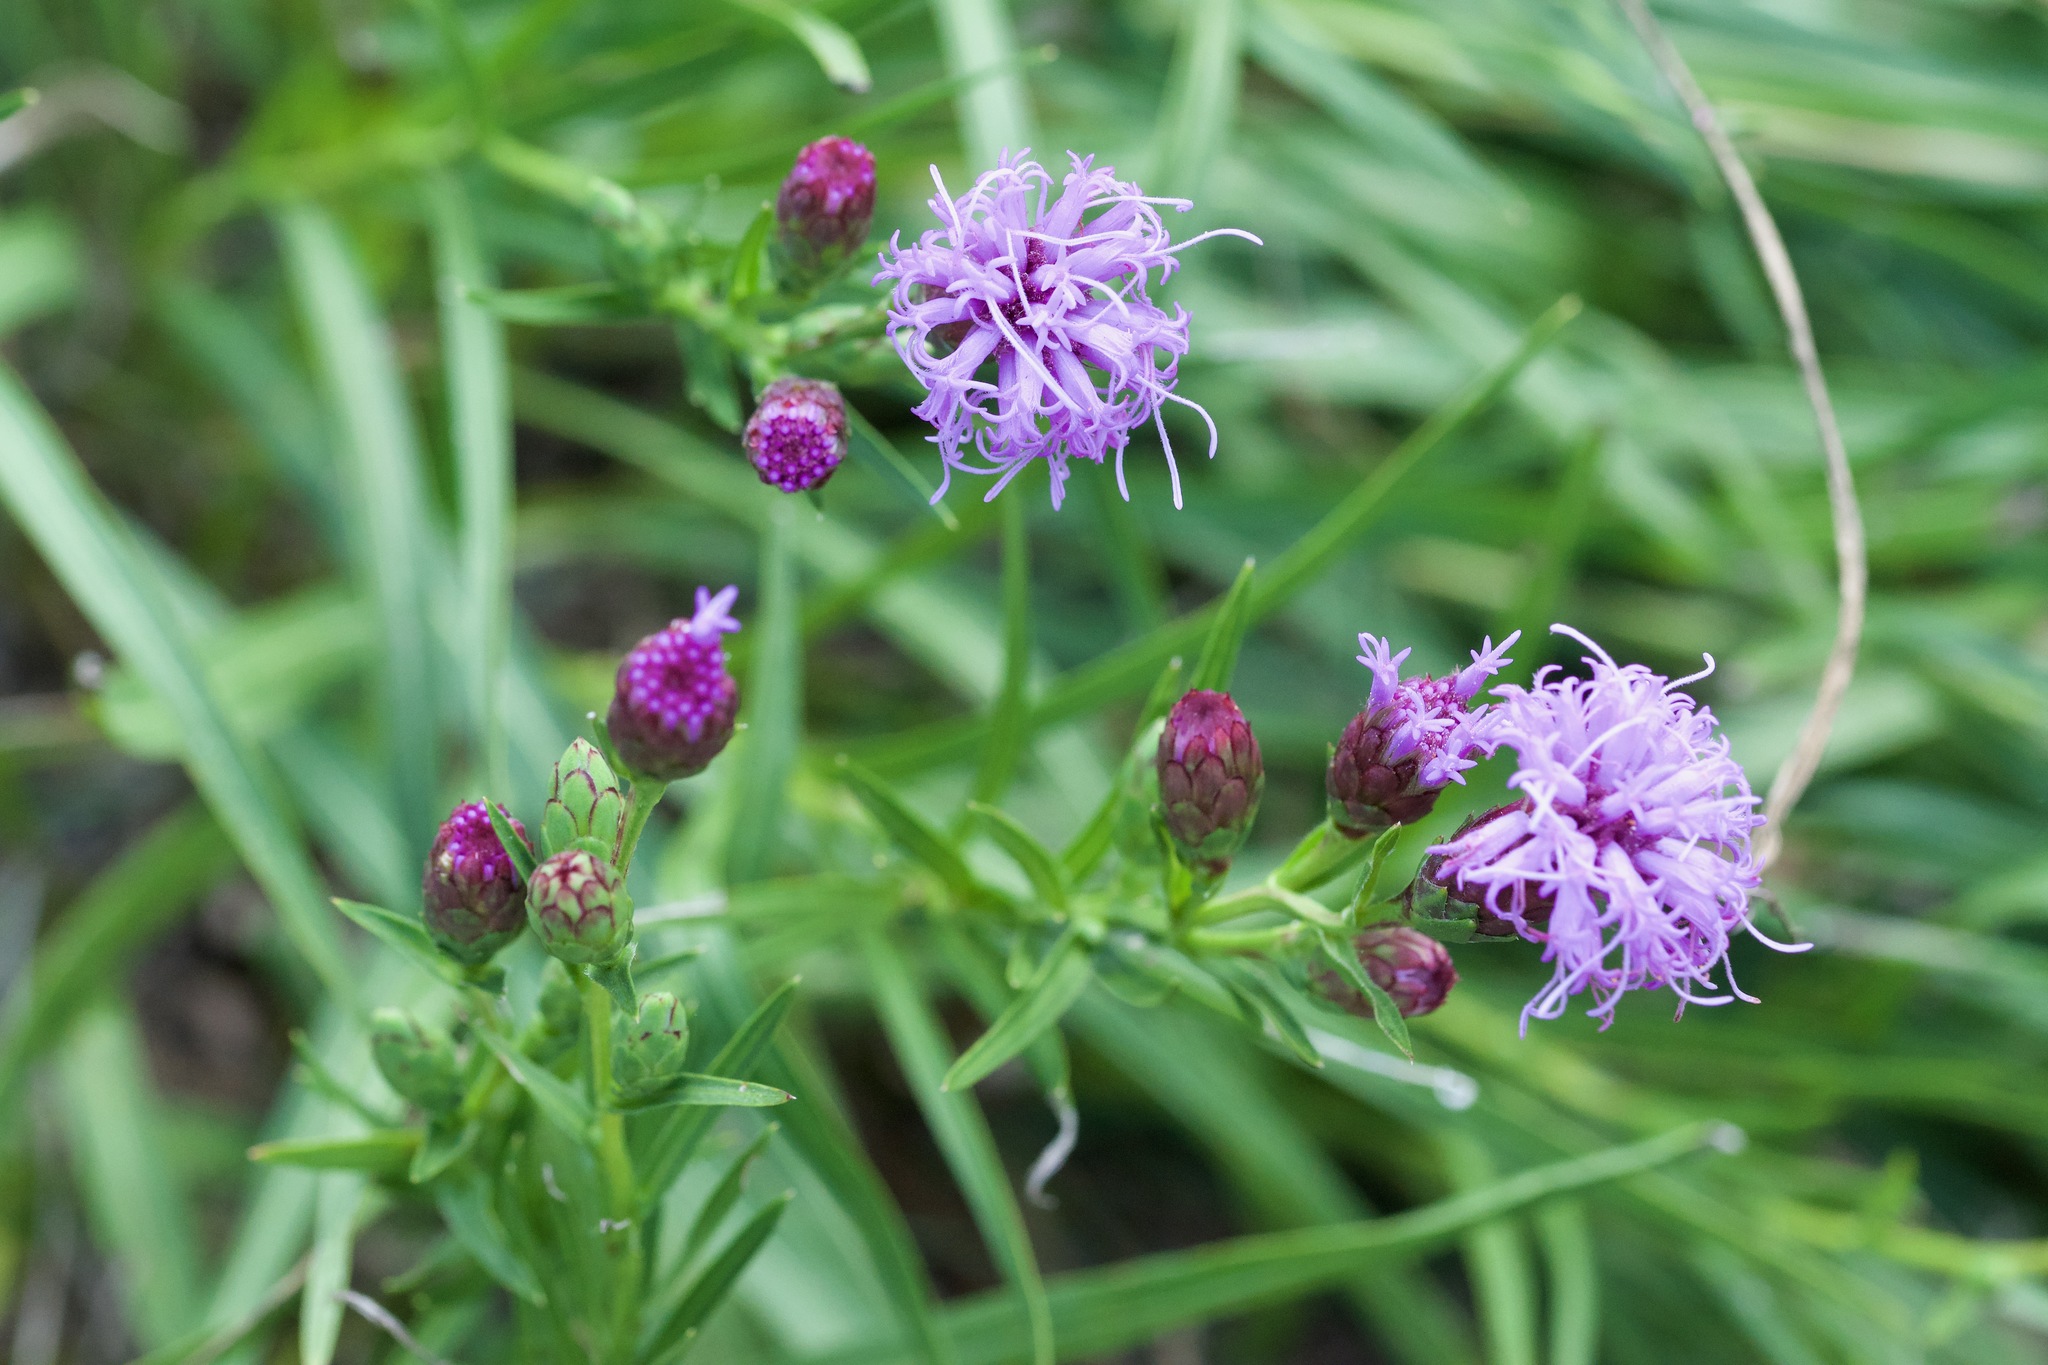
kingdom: Plantae
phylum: Tracheophyta
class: Magnoliopsida
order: Asterales
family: Asteraceae
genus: Liatris
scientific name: Liatris cylindracea
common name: Few-head blazingstar
